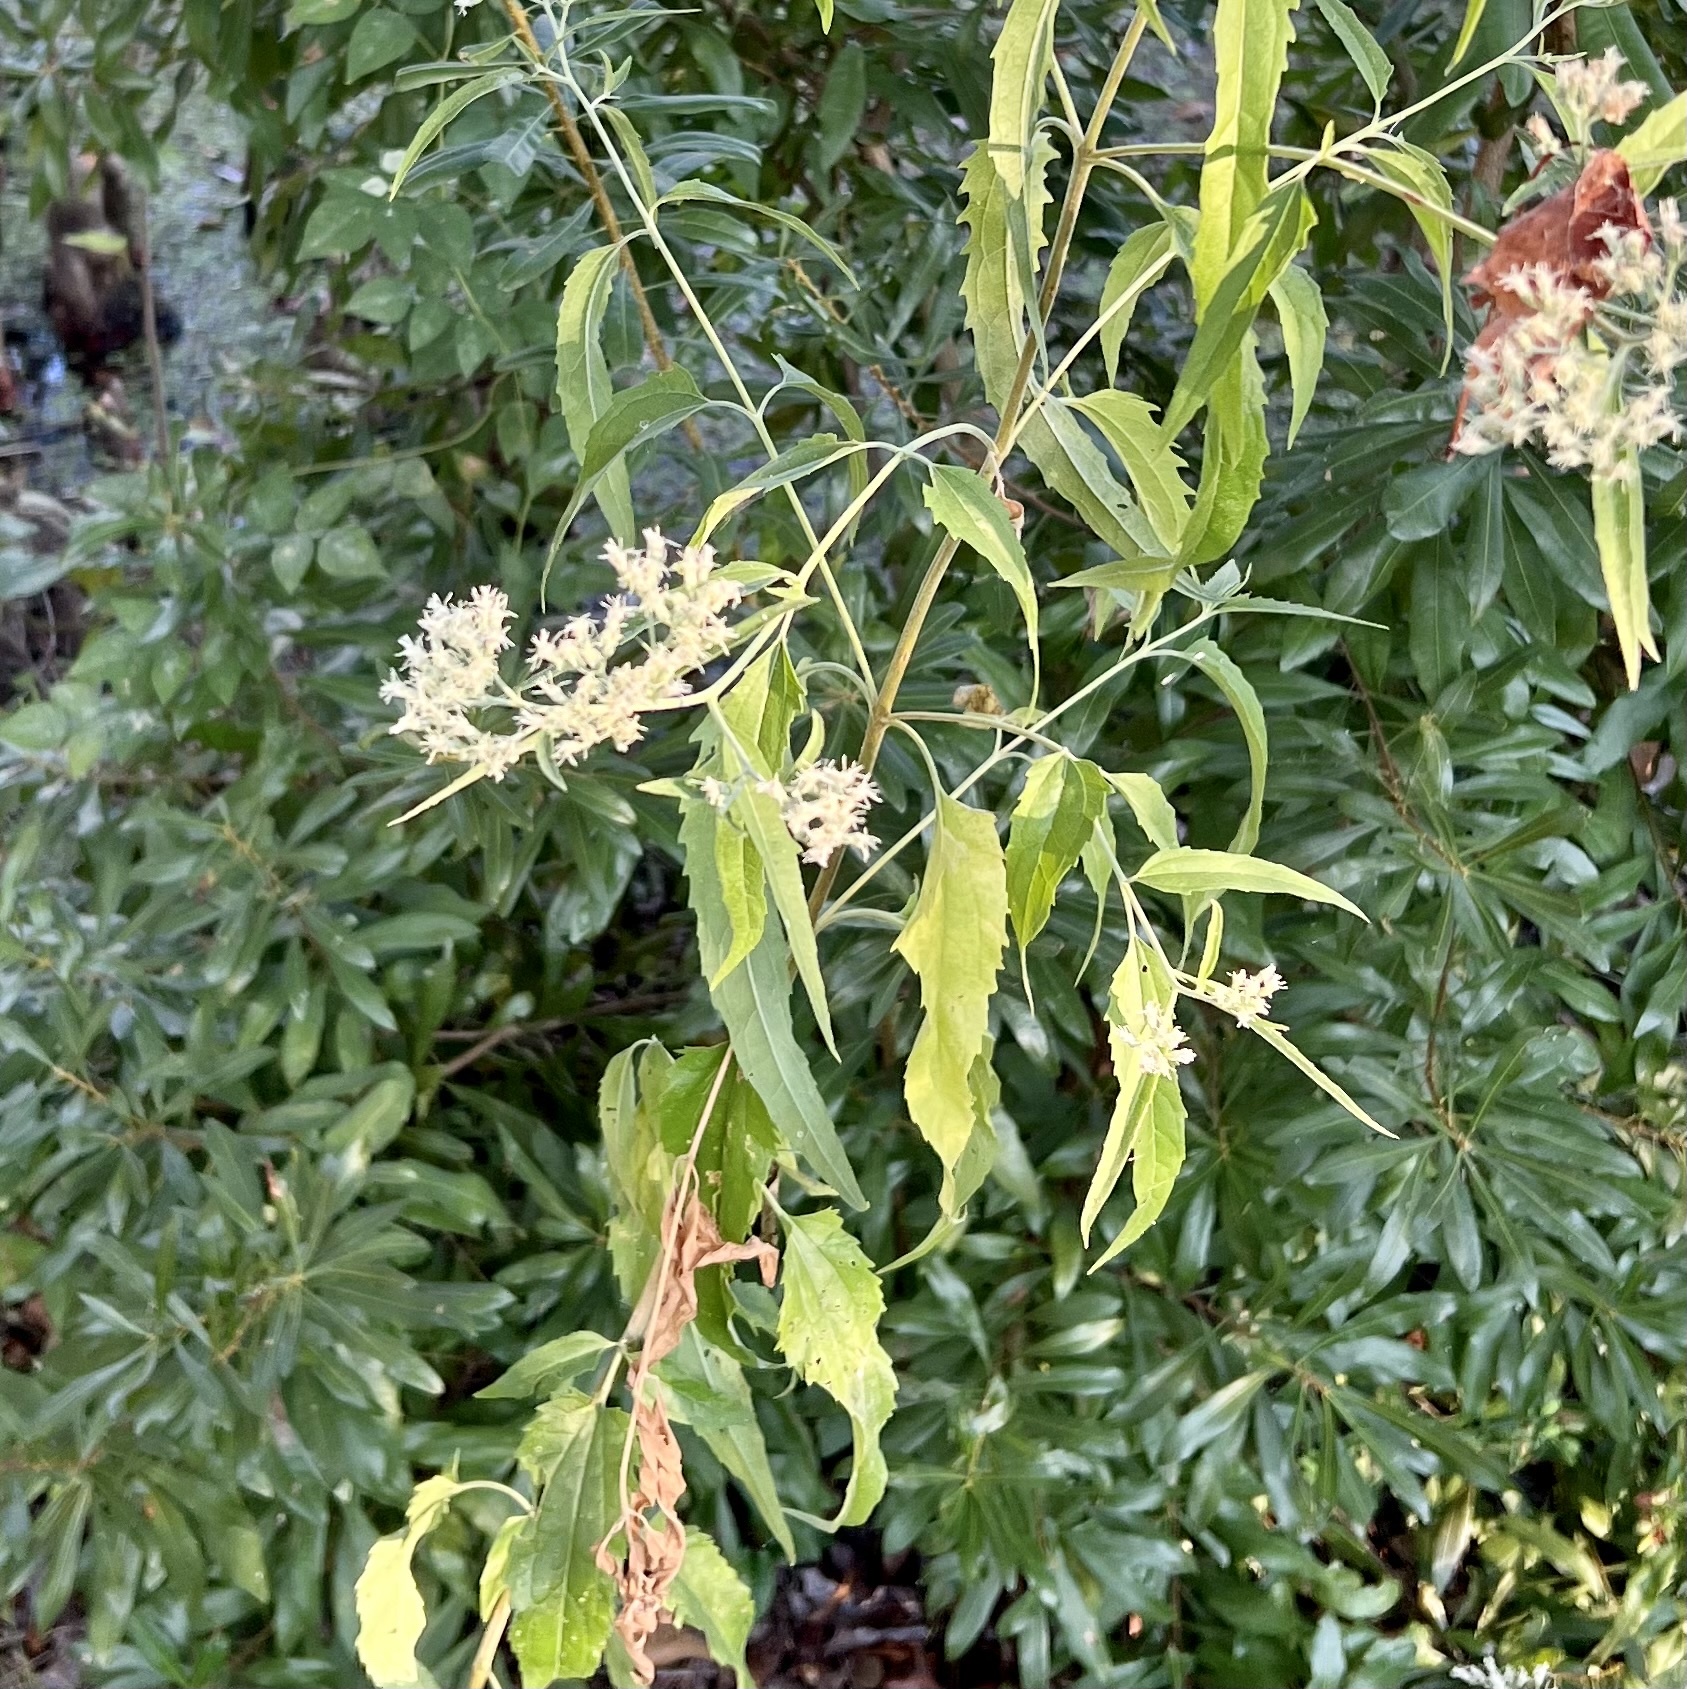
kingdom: Plantae
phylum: Tracheophyta
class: Magnoliopsida
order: Asterales
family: Asteraceae
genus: Eupatorium
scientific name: Eupatorium serotinum
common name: Late boneset
